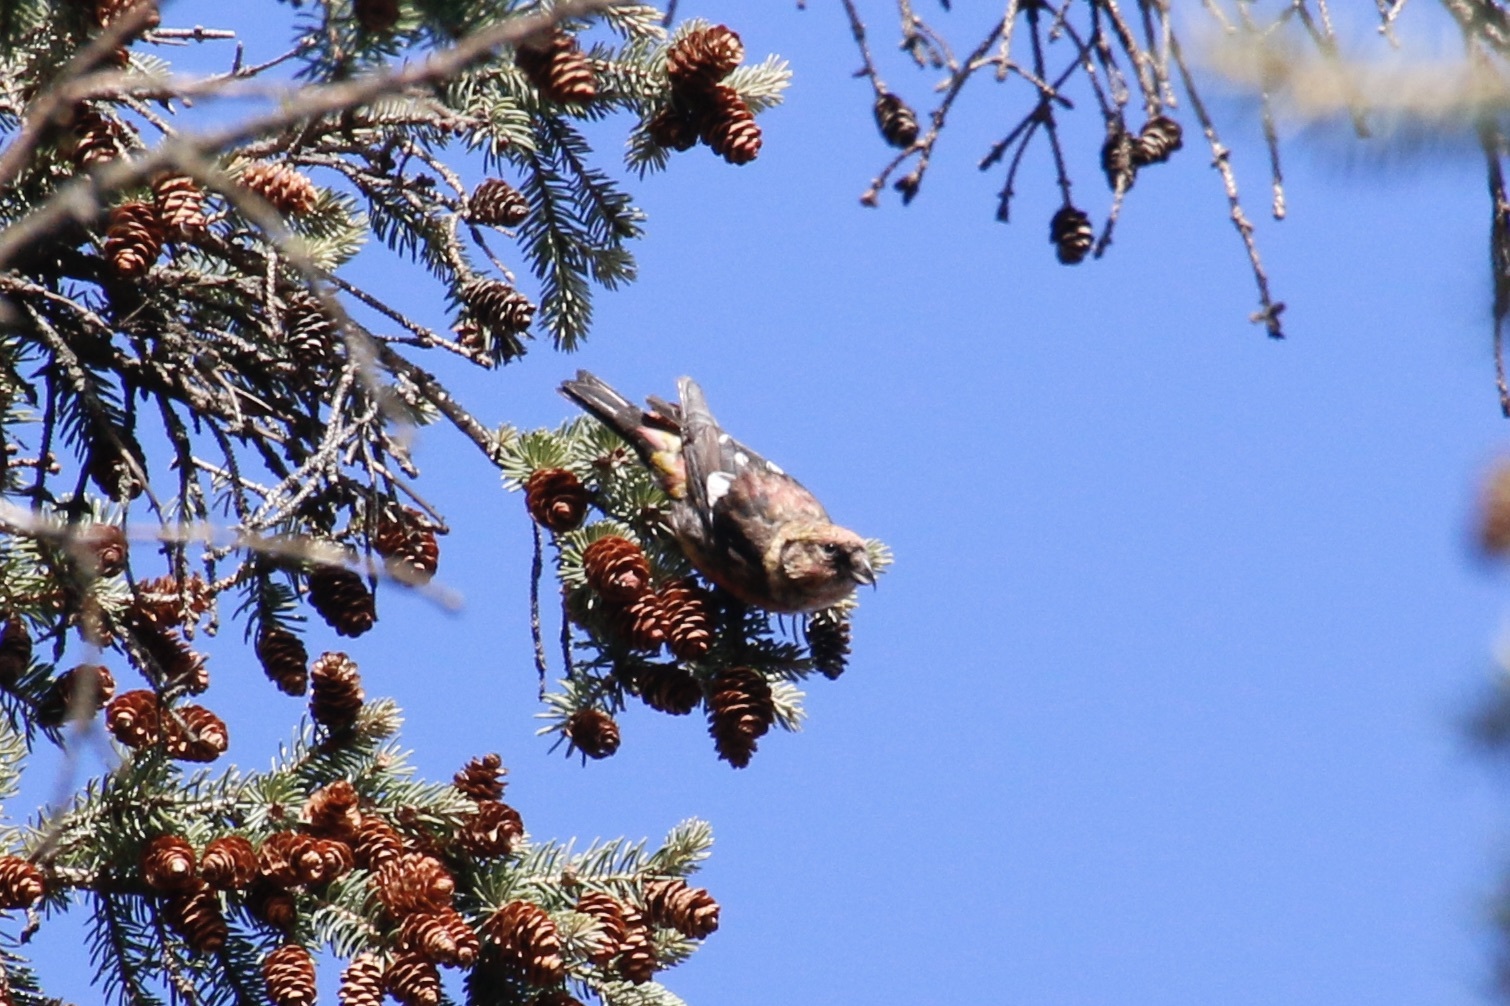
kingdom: Animalia
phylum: Chordata
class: Aves
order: Passeriformes
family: Fringillidae
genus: Loxia
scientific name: Loxia leucoptera
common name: Two-barred crossbill
